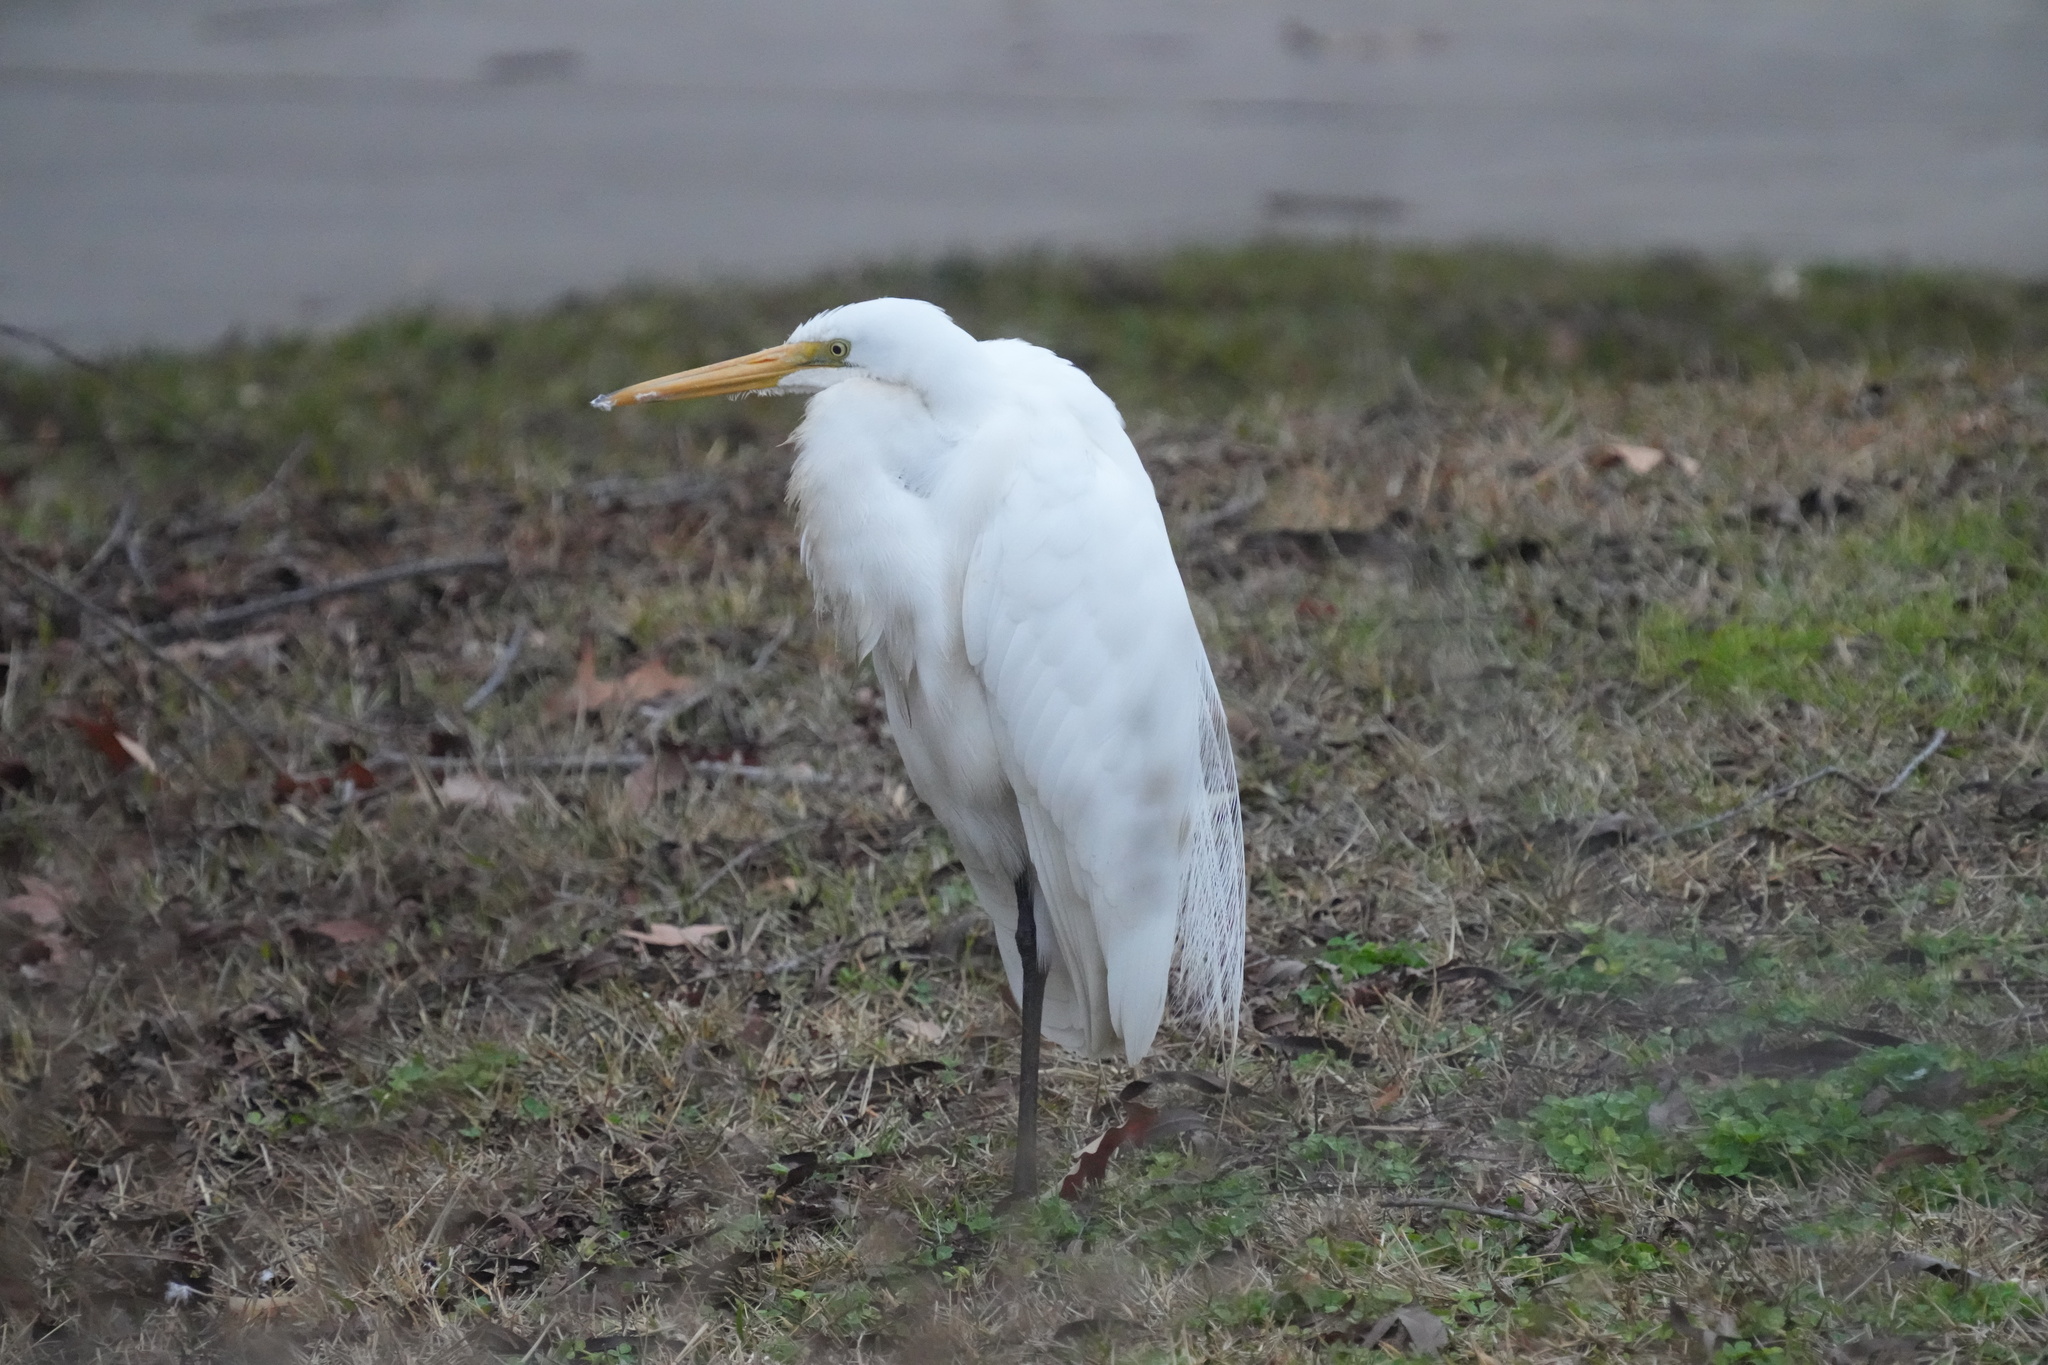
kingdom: Animalia
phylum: Chordata
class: Aves
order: Pelecaniformes
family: Ardeidae
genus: Ardea
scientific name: Ardea alba
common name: Great egret
